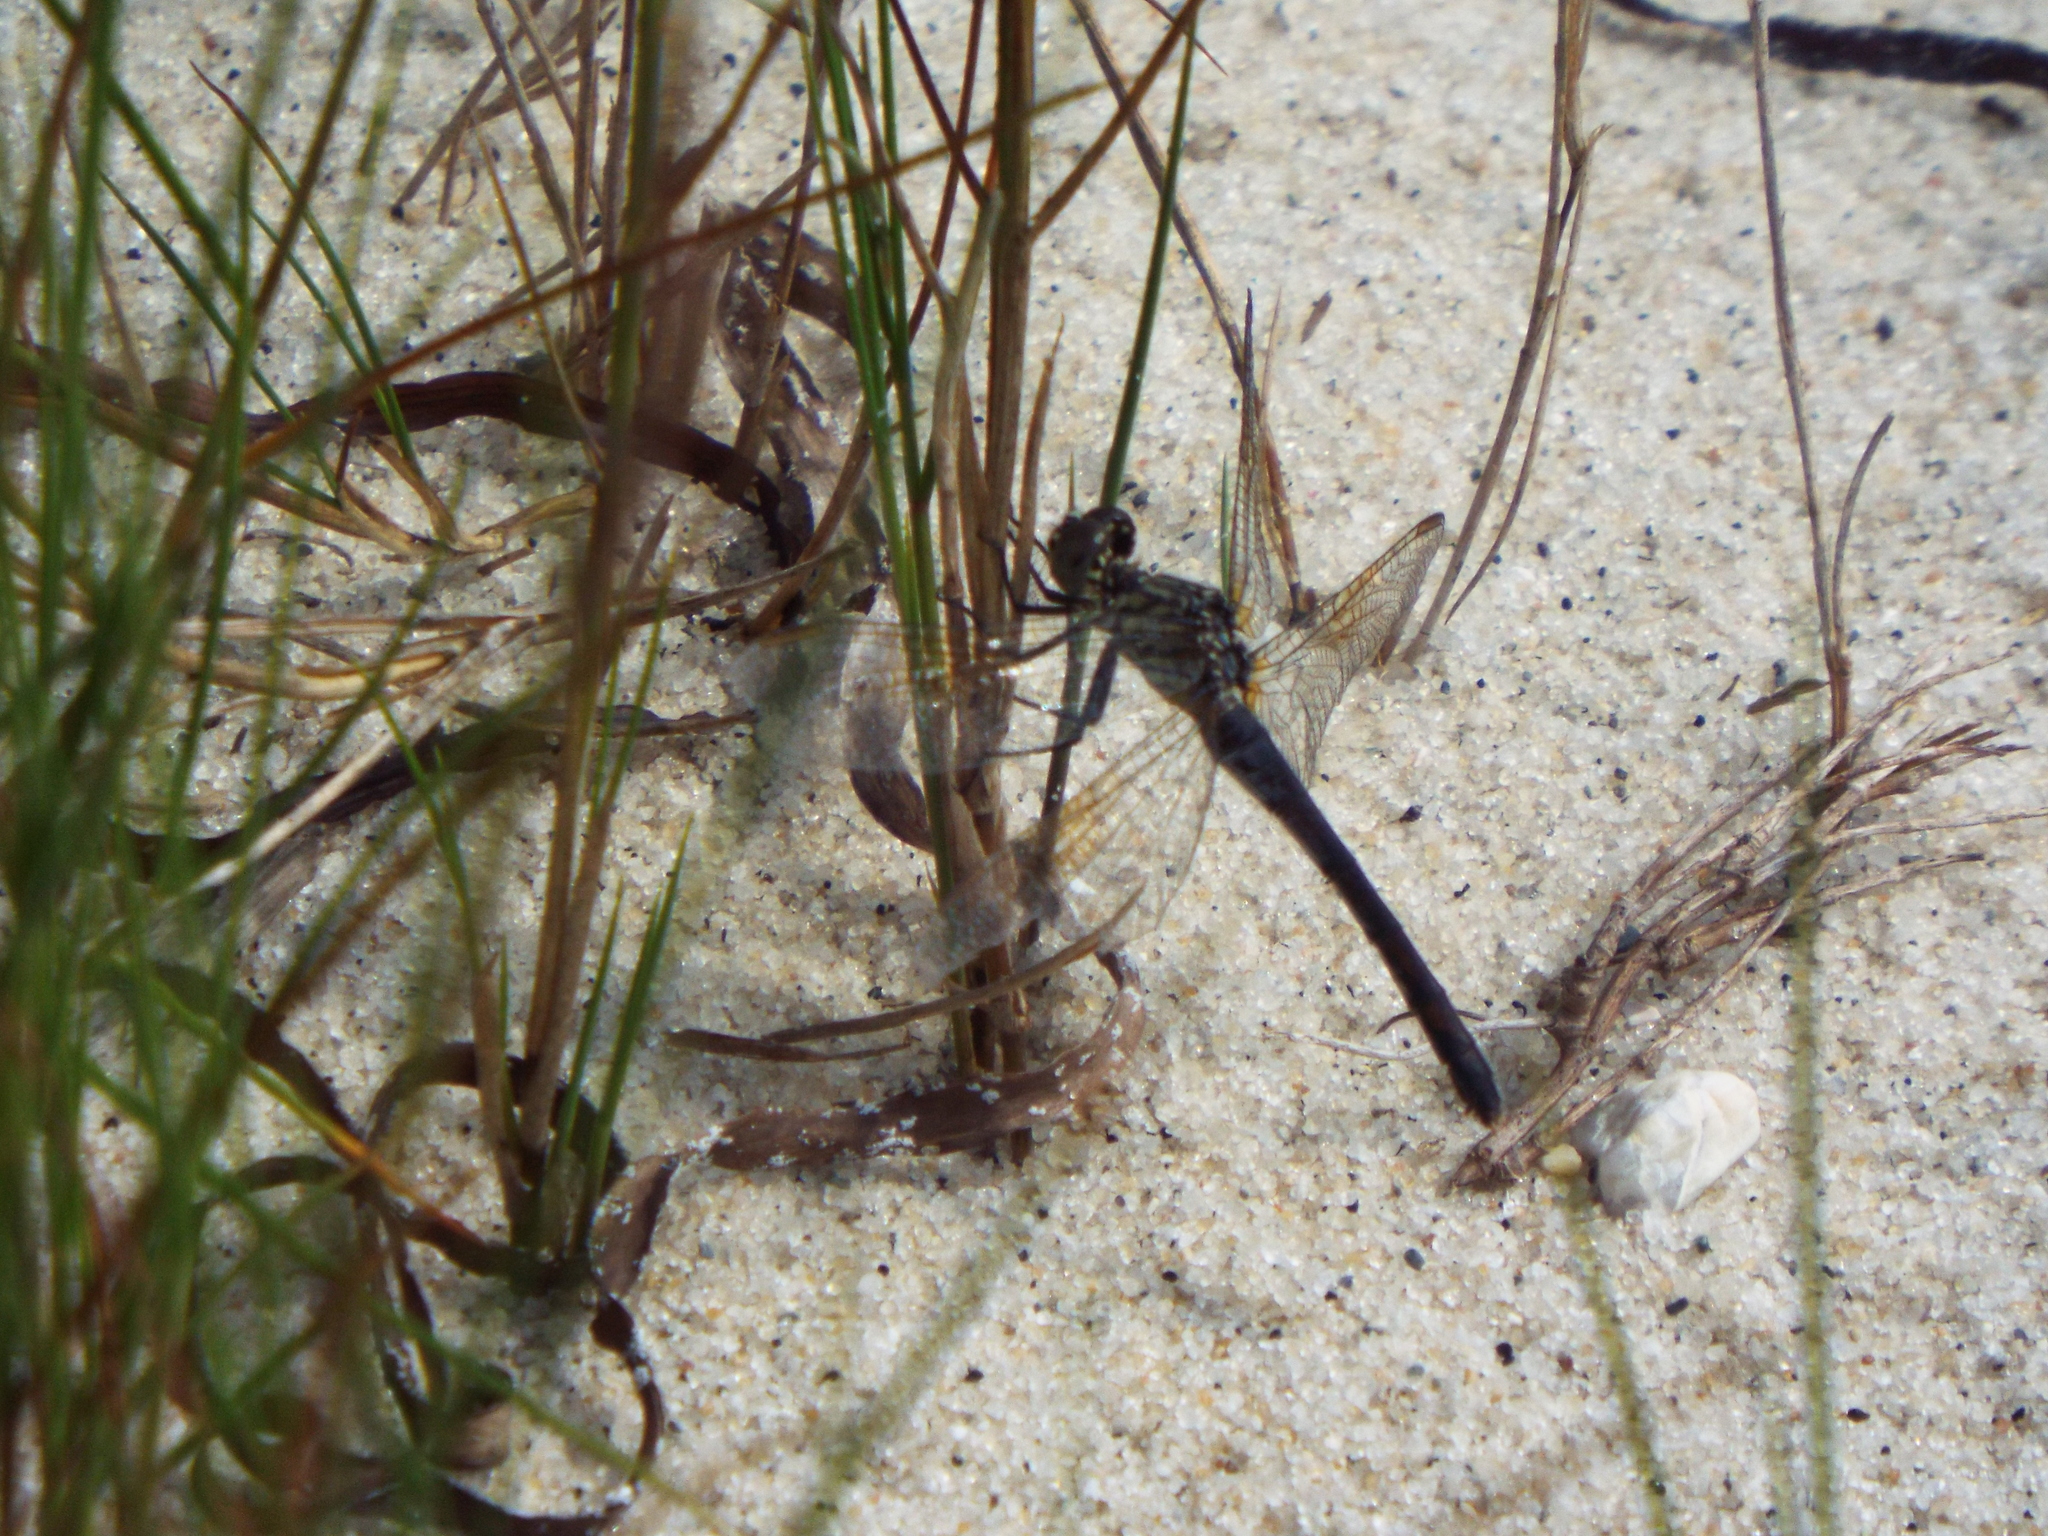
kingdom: Animalia
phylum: Arthropoda
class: Insecta
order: Odonata
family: Libellulidae
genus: Erythrodiplax
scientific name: Erythrodiplax berenice
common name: Seaside dragonlet
